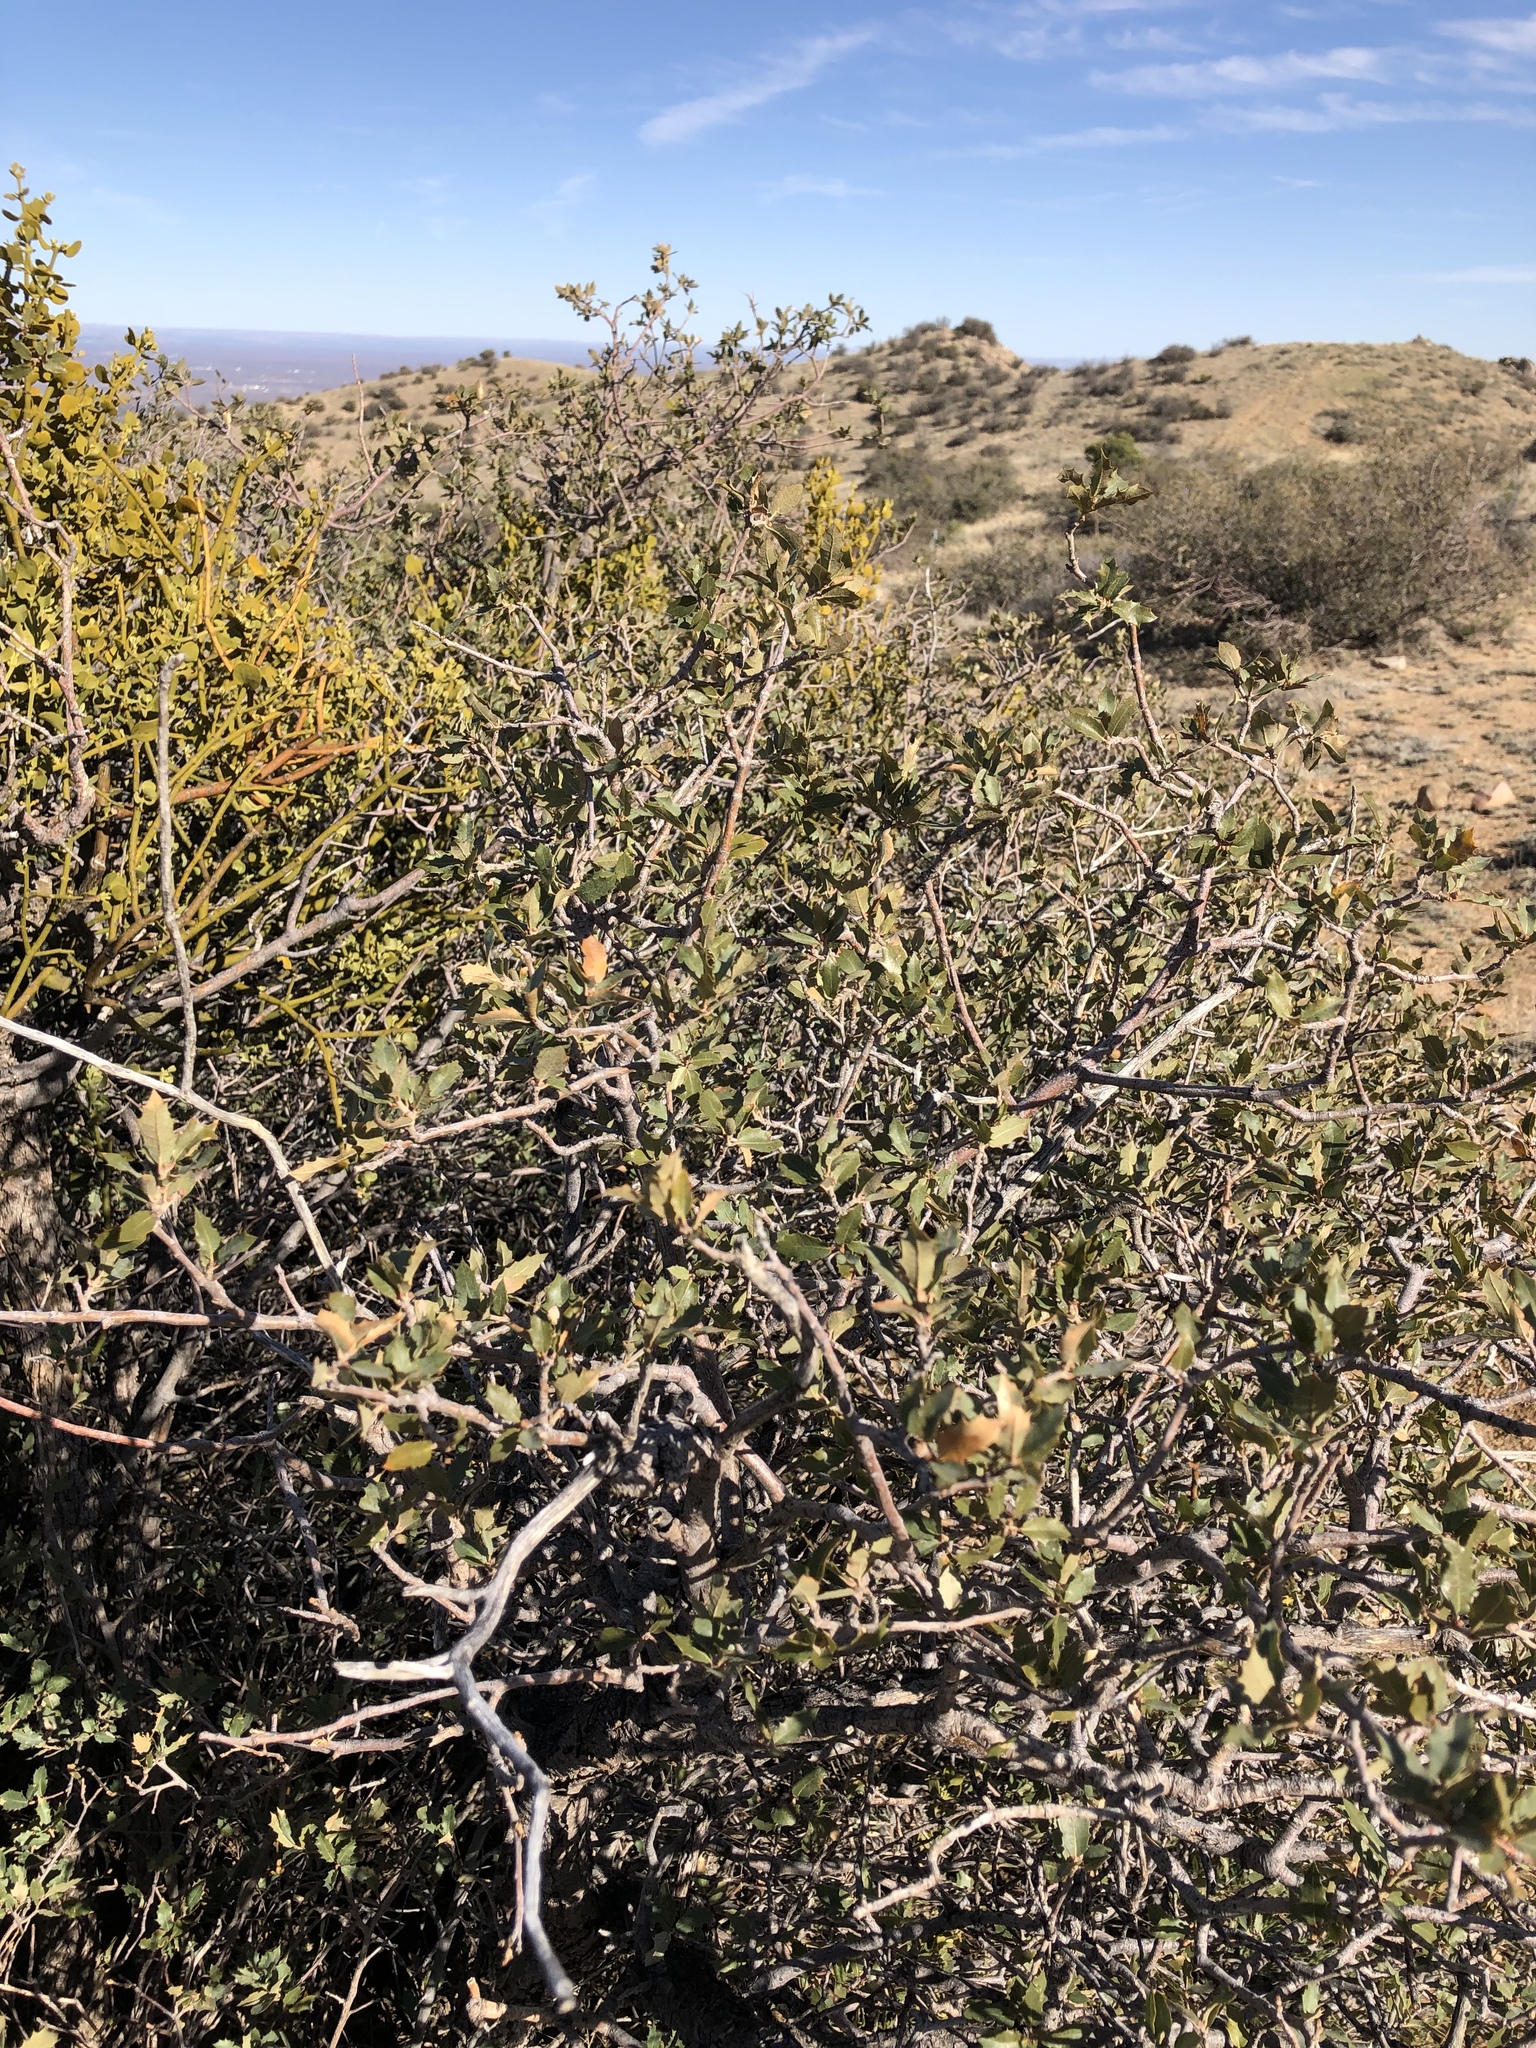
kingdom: Plantae
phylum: Tracheophyta
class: Magnoliopsida
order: Fagales
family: Fagaceae
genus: Quercus
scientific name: Quercus turbinella
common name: Sonoran scrub oak
